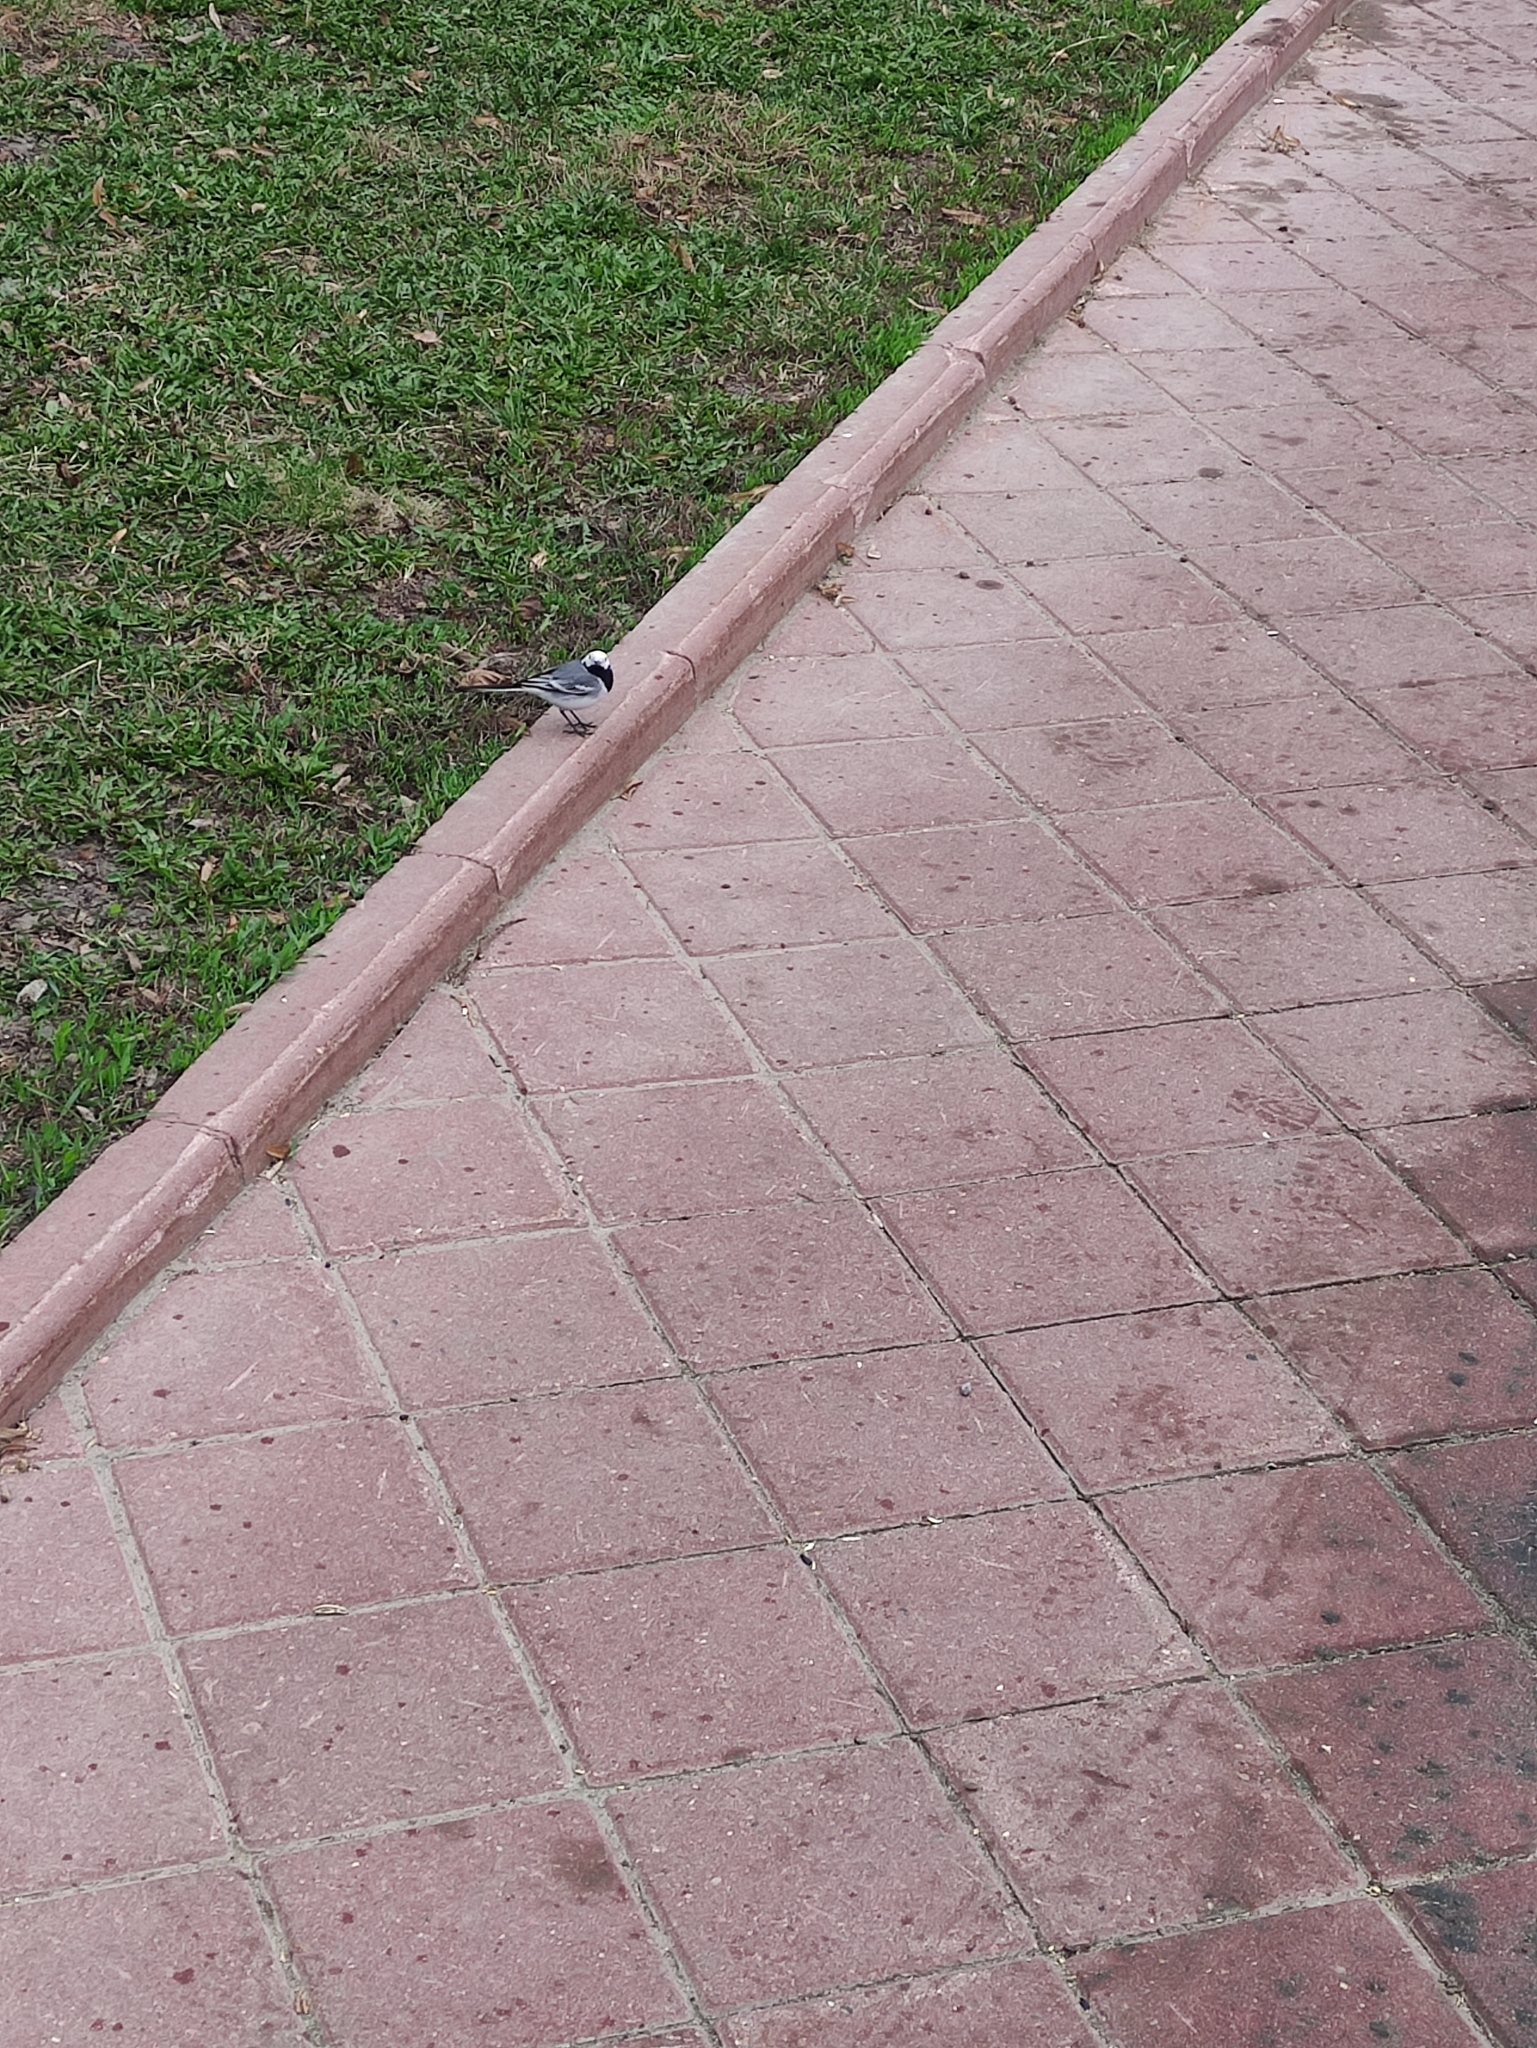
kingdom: Animalia
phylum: Chordata
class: Aves
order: Passeriformes
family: Motacillidae
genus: Motacilla
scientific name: Motacilla alba
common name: White wagtail
